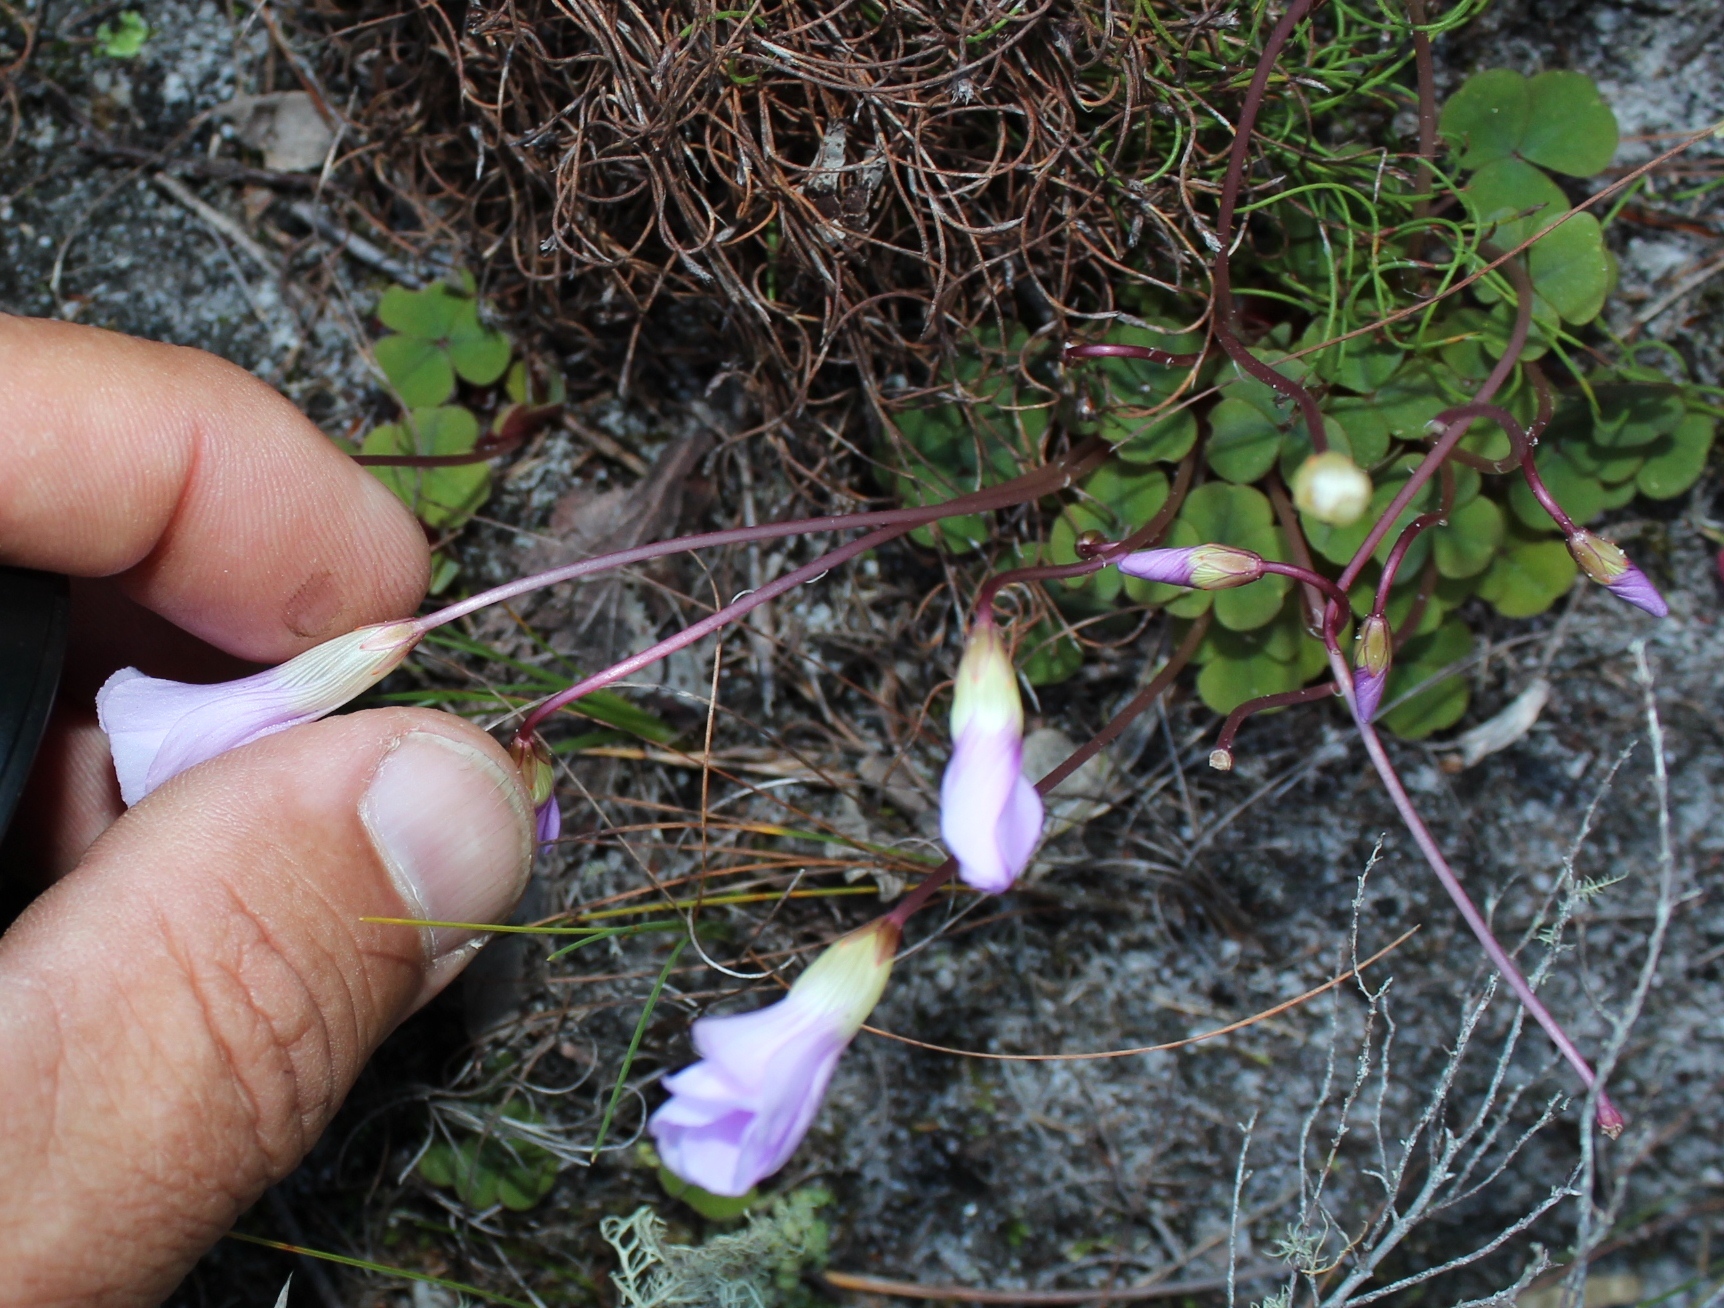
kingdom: Plantae
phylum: Tracheophyta
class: Magnoliopsida
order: Oxalidales
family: Oxalidaceae
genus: Oxalis
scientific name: Oxalis commutata
